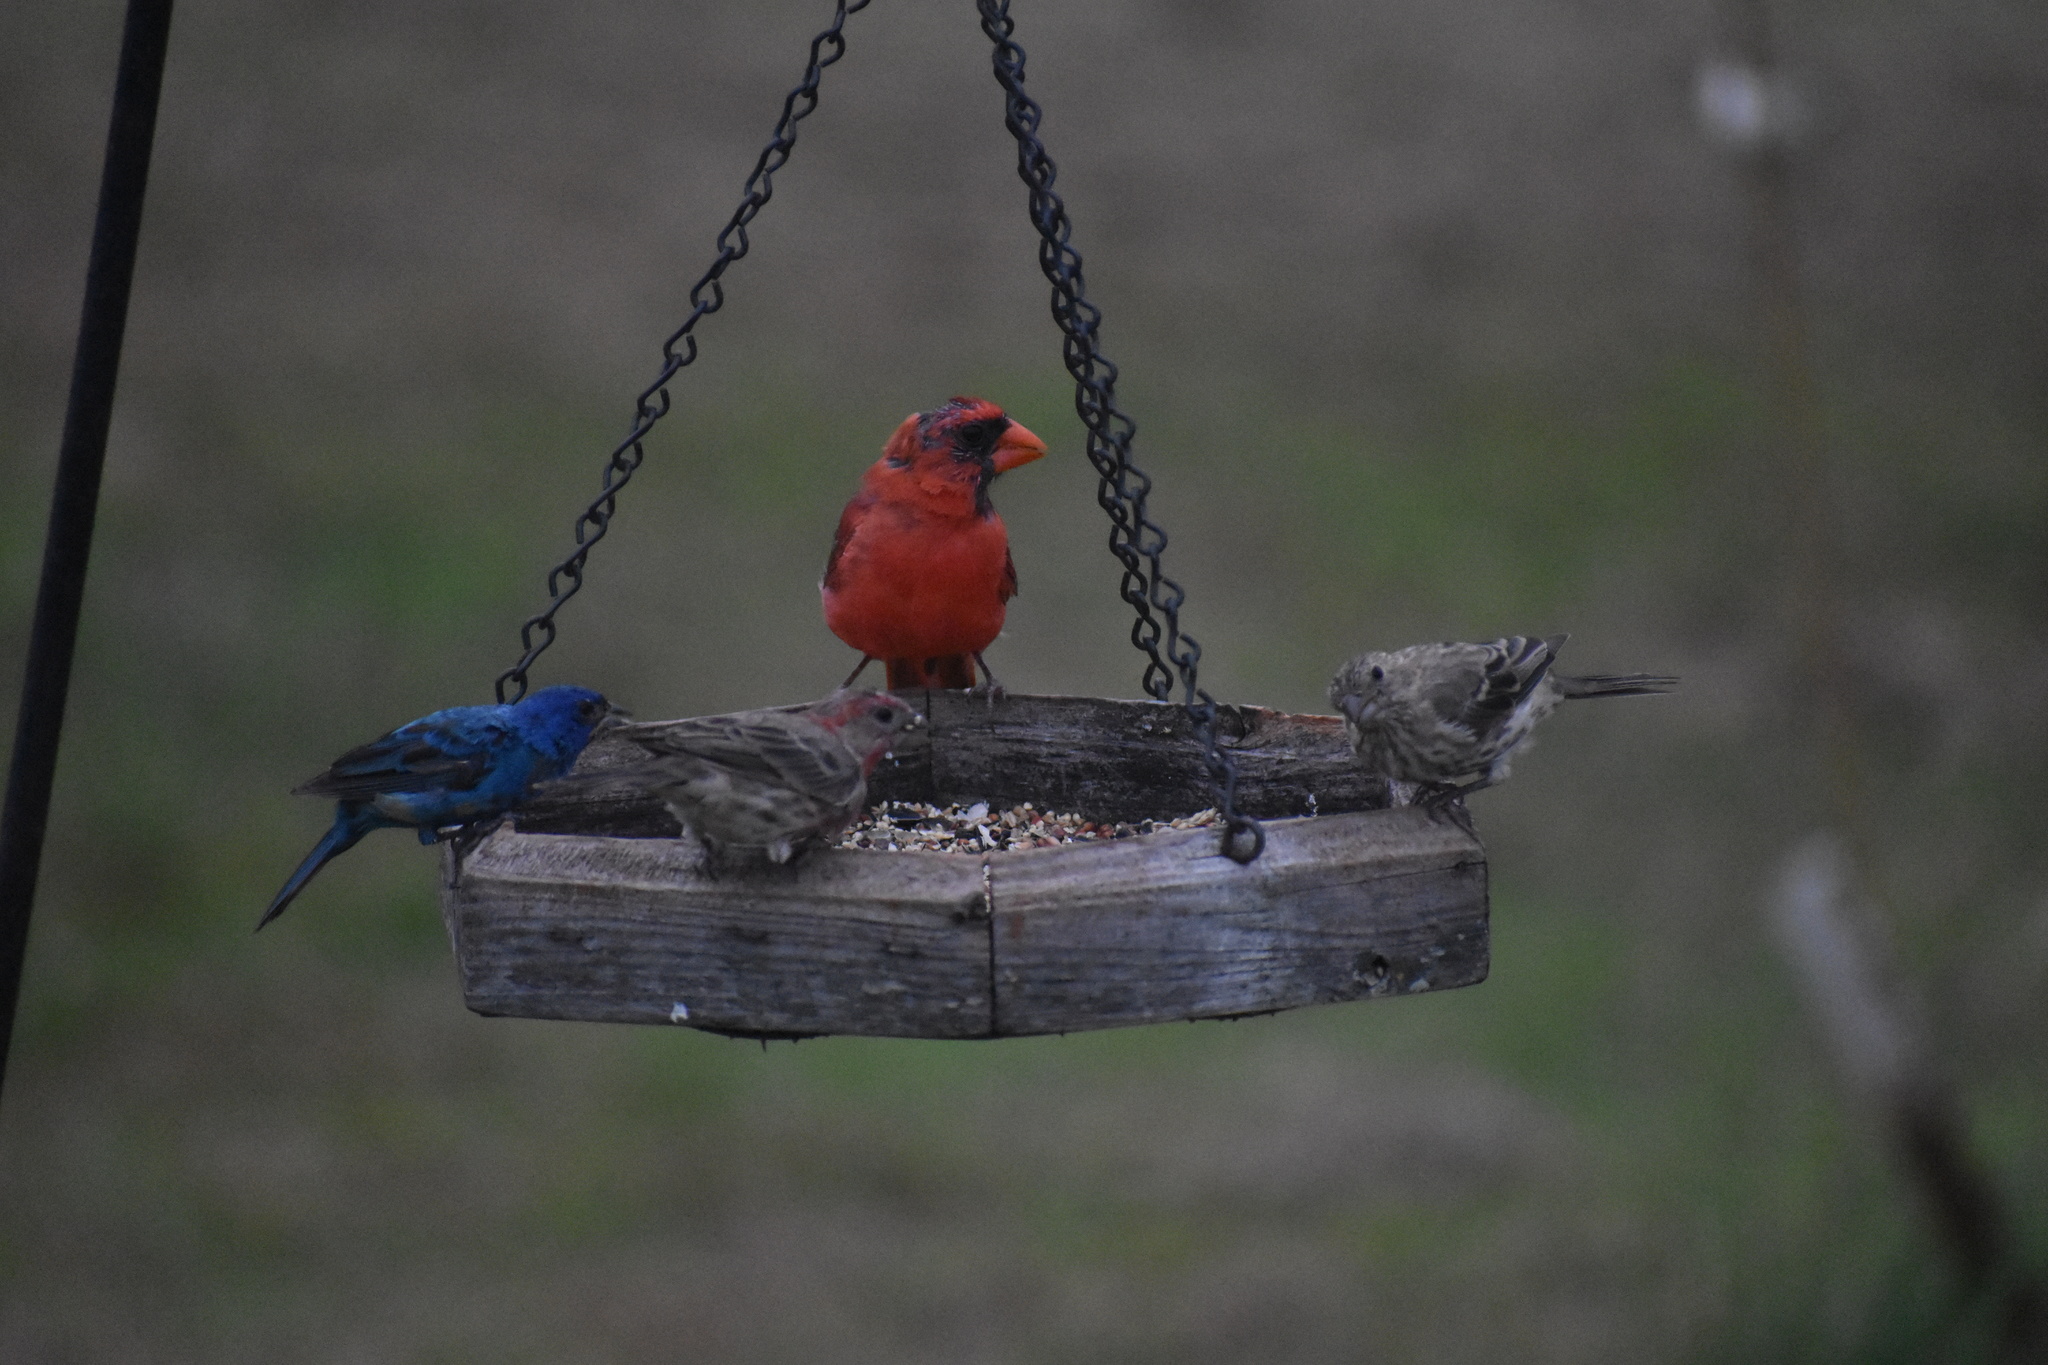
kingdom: Animalia
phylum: Chordata
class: Aves
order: Passeriformes
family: Fringillidae
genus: Haemorhous
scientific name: Haemorhous mexicanus
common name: House finch
